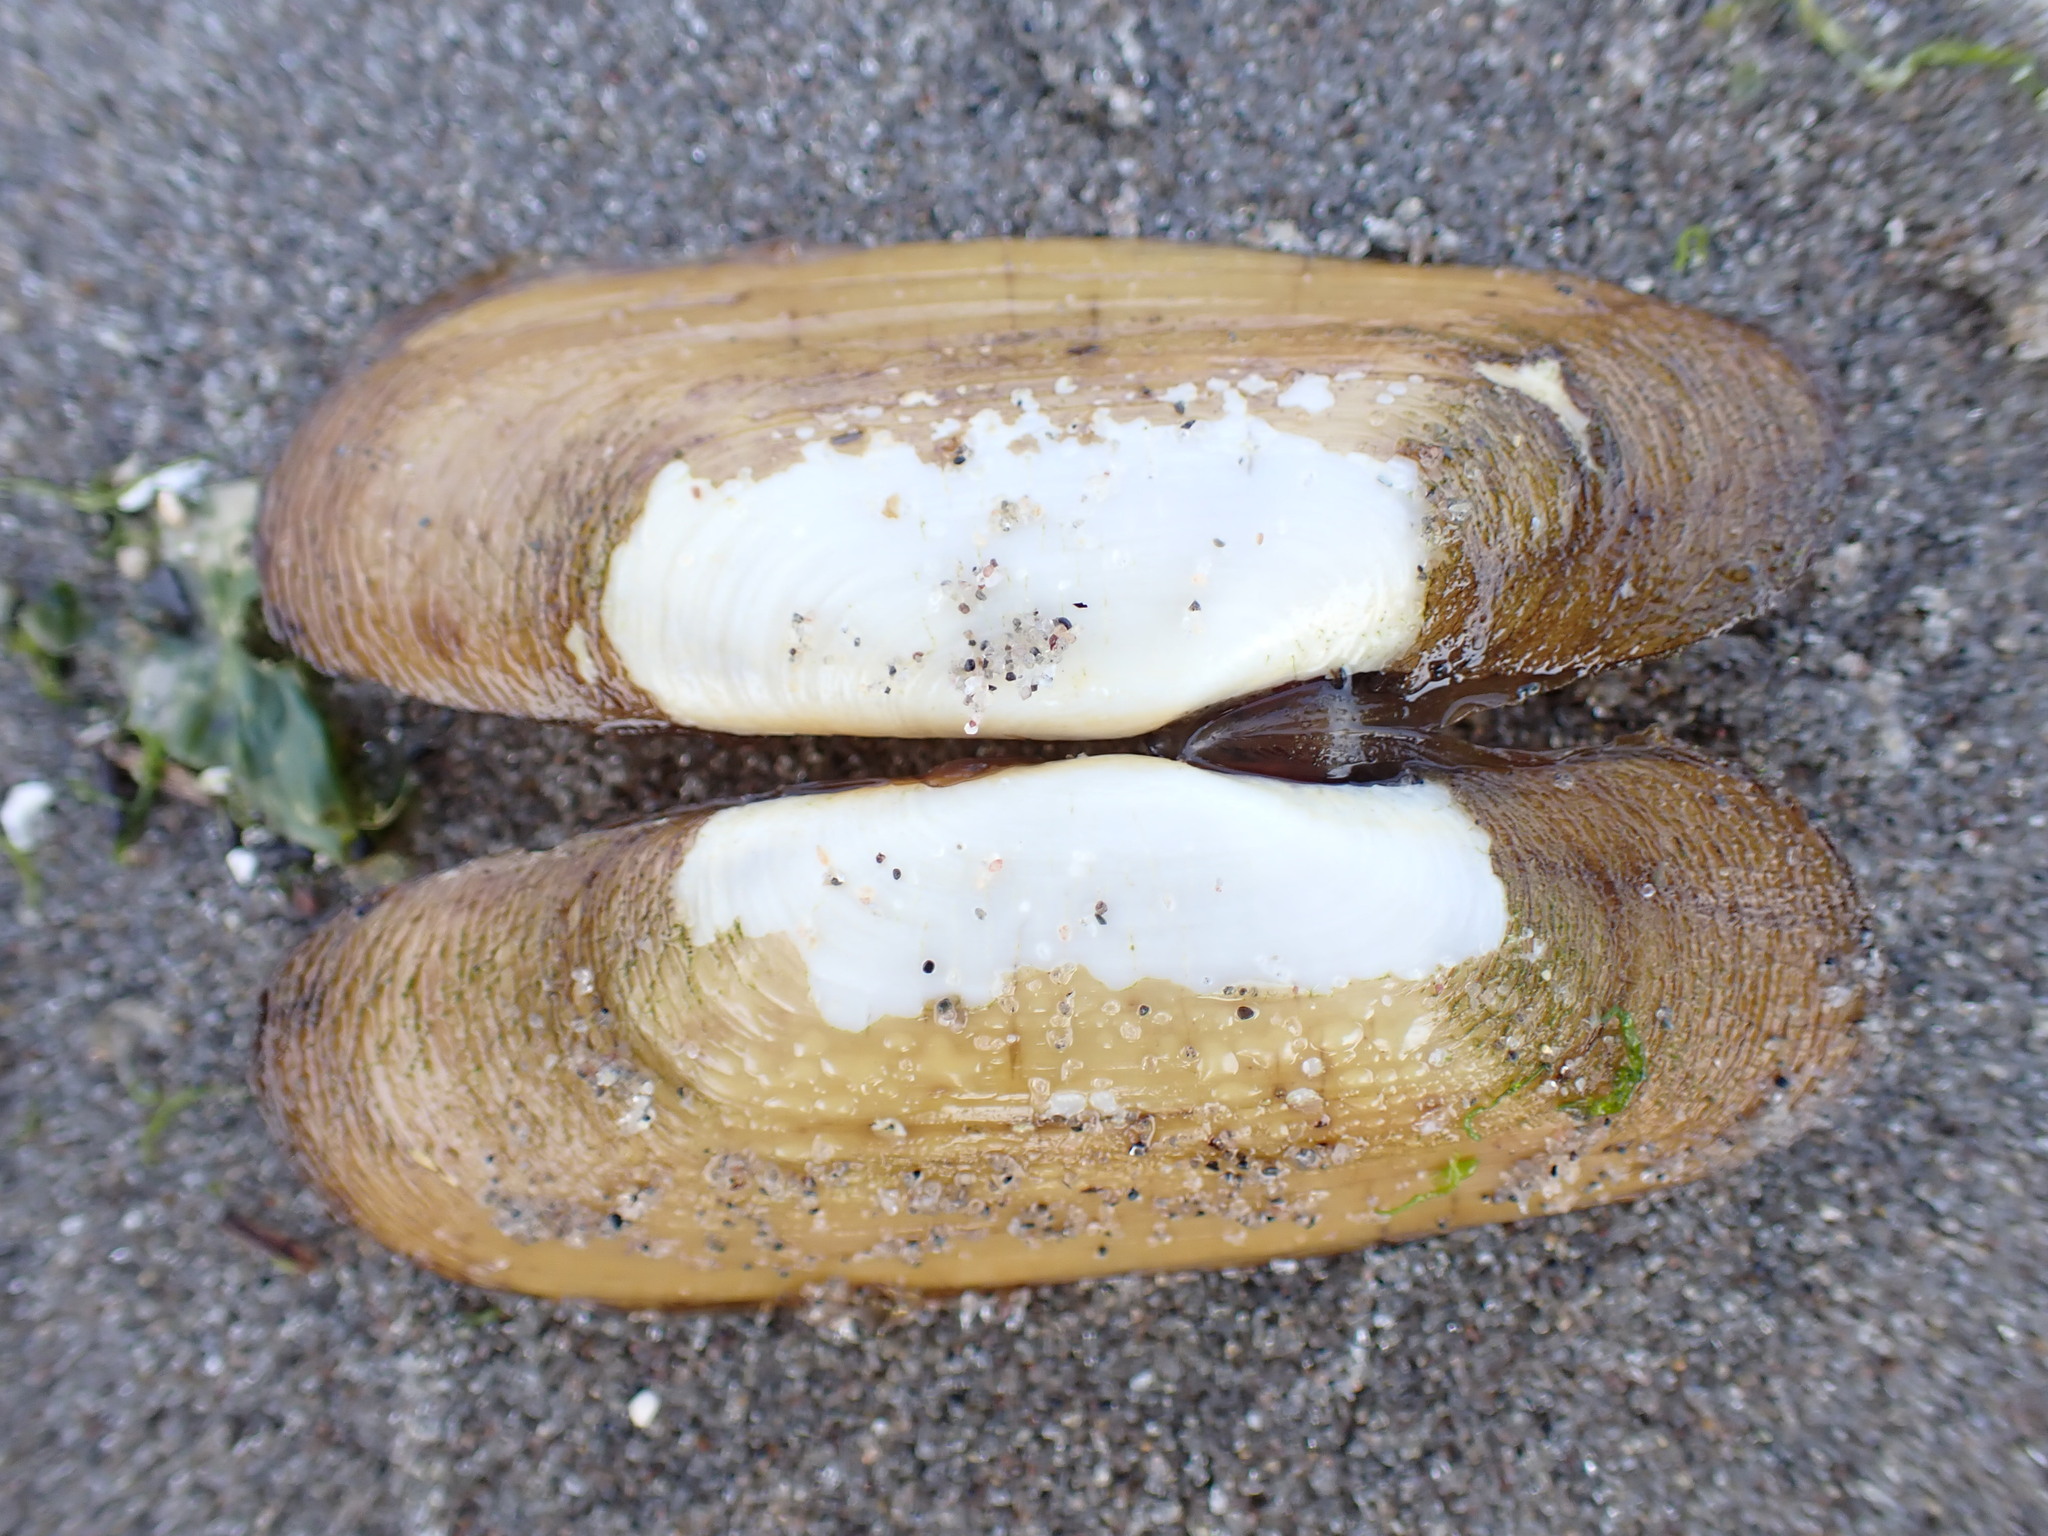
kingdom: Animalia
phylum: Mollusca
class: Bivalvia
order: Cardiida
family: Solecurtidae
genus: Tagelus
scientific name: Tagelus plebeius
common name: Stout tagelus
